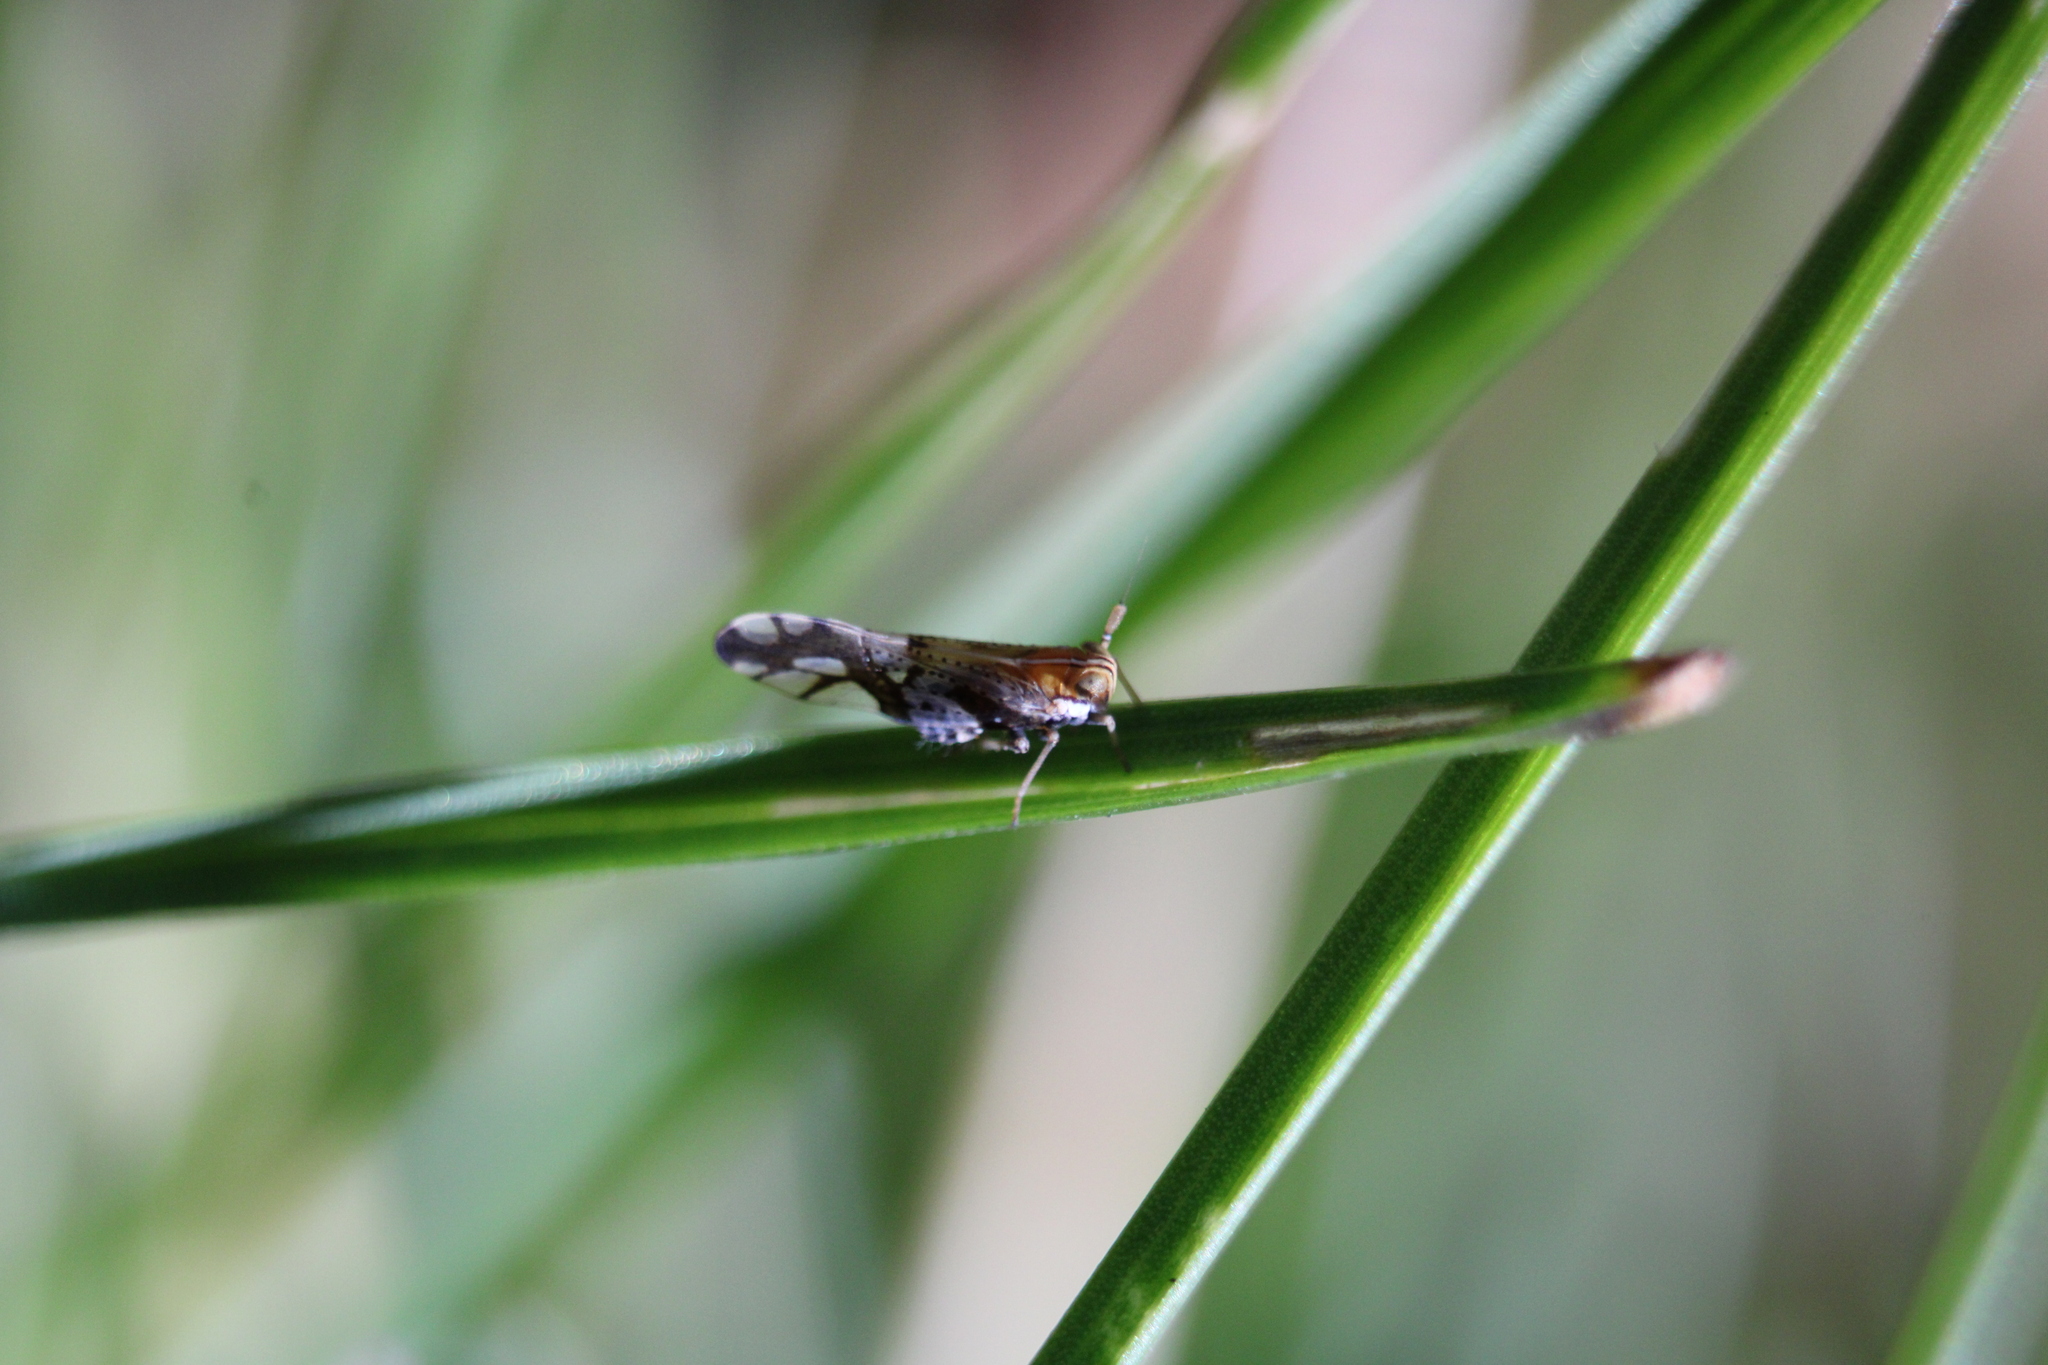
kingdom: Animalia
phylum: Arthropoda
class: Insecta
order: Hemiptera
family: Delphacidae
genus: Liburniella
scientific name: Liburniella ornata
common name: Ornate planthopper
